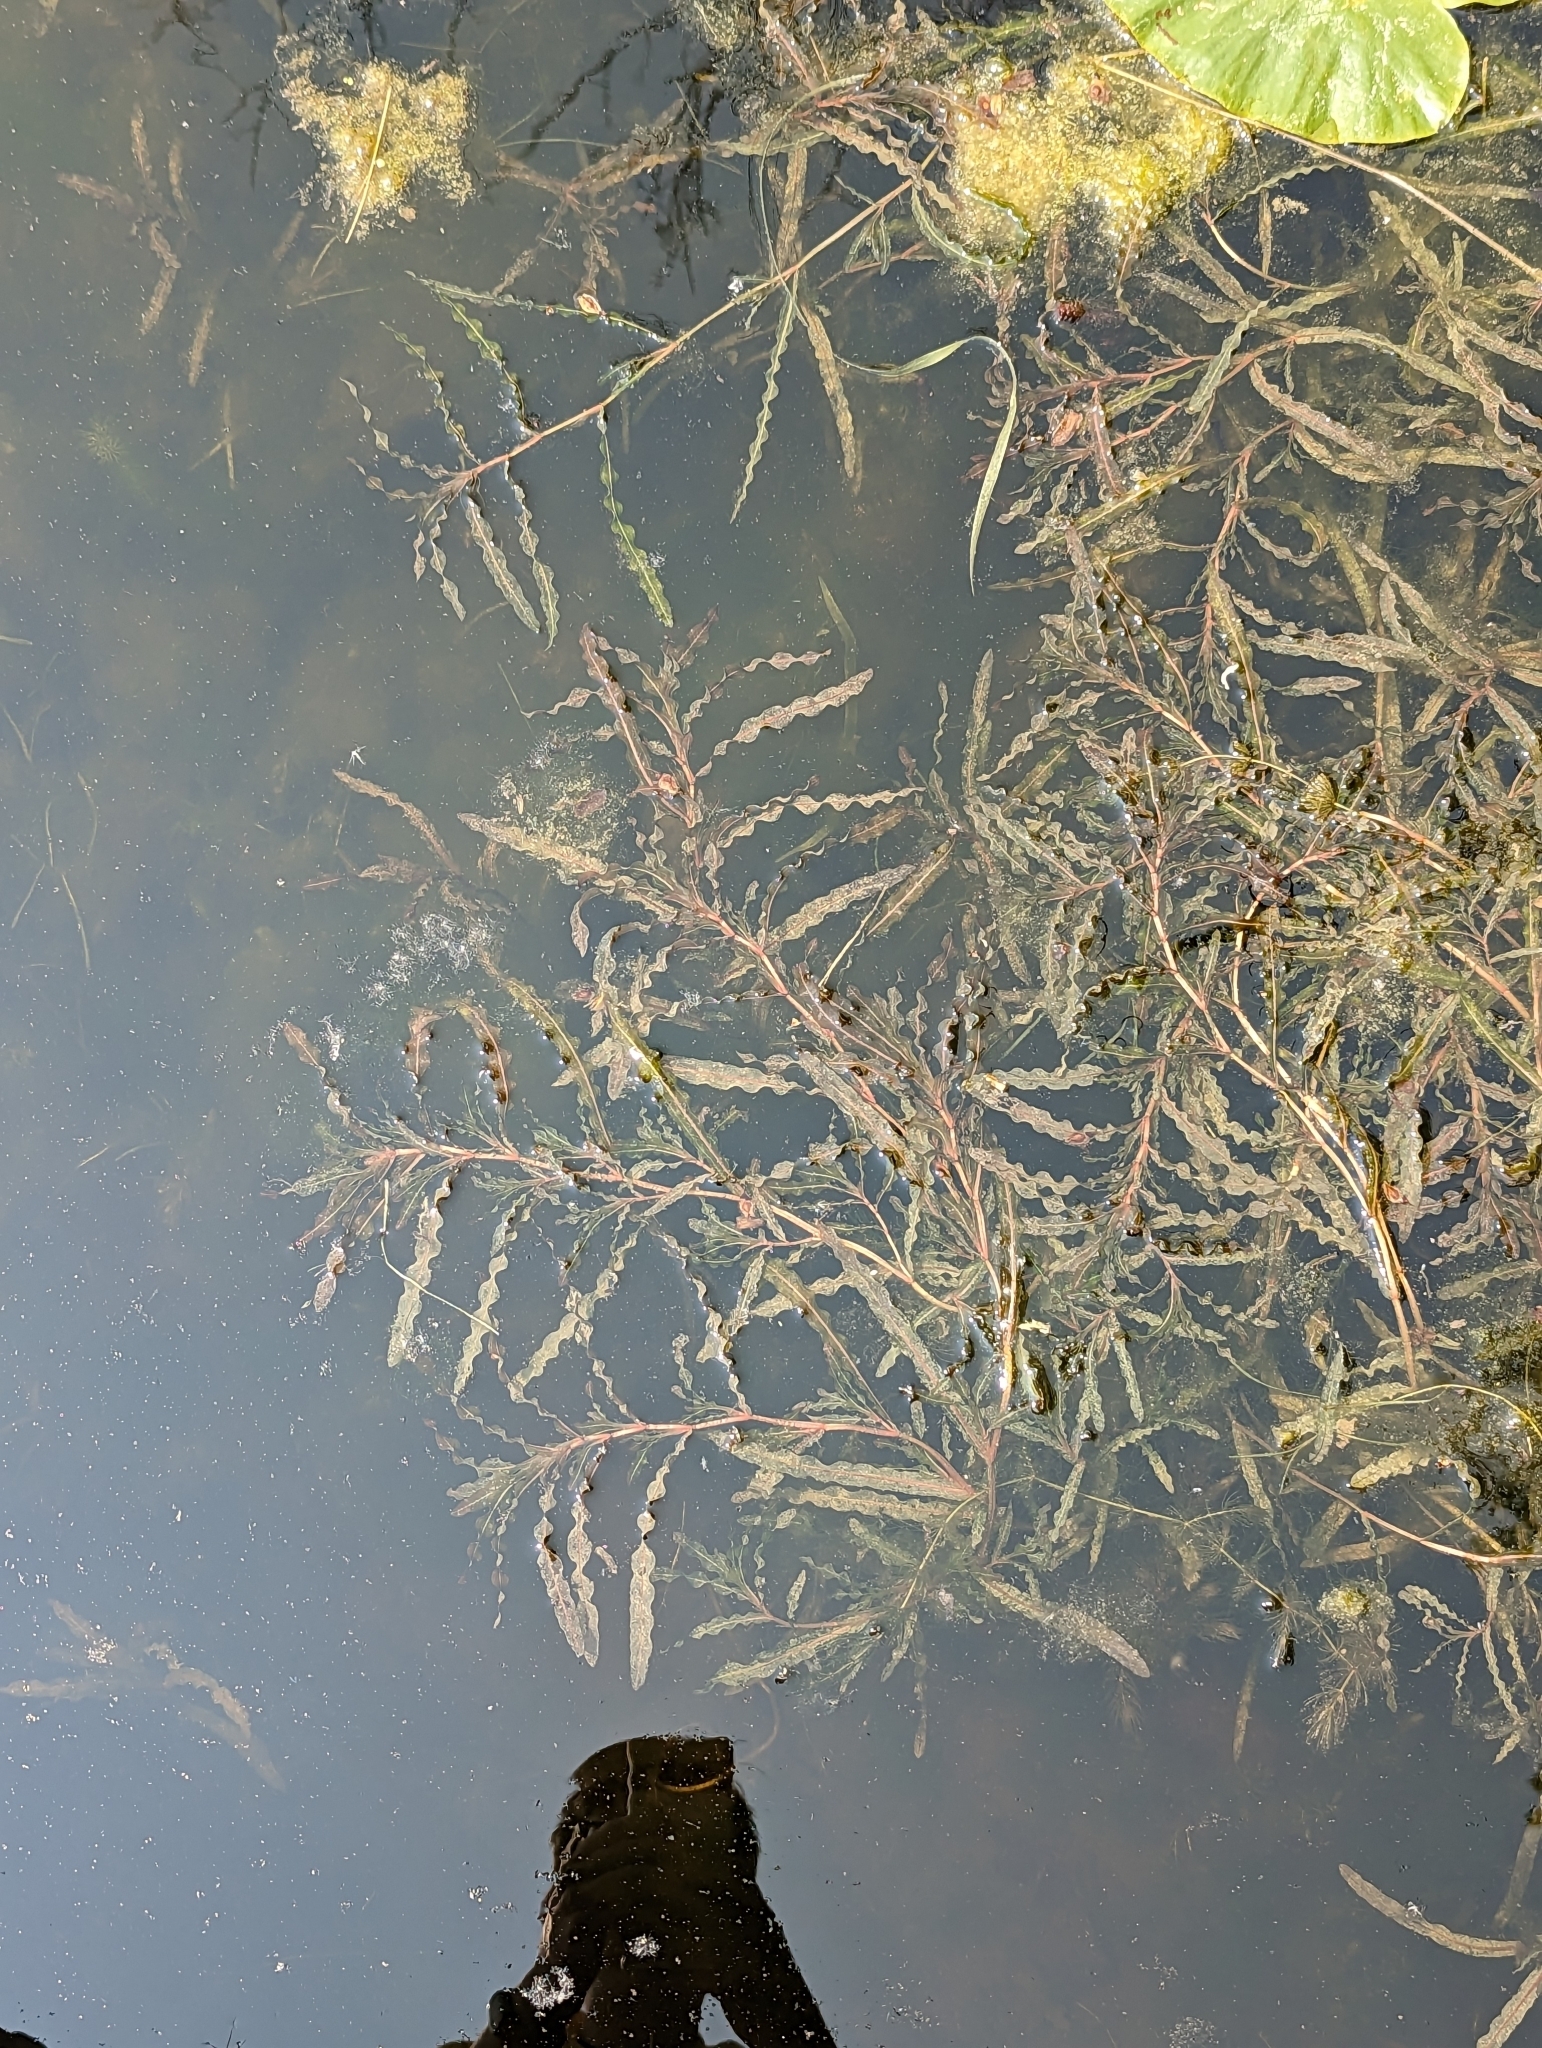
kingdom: Plantae
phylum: Tracheophyta
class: Liliopsida
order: Alismatales
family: Potamogetonaceae
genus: Potamogeton
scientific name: Potamogeton crispus
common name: Curled pondweed
